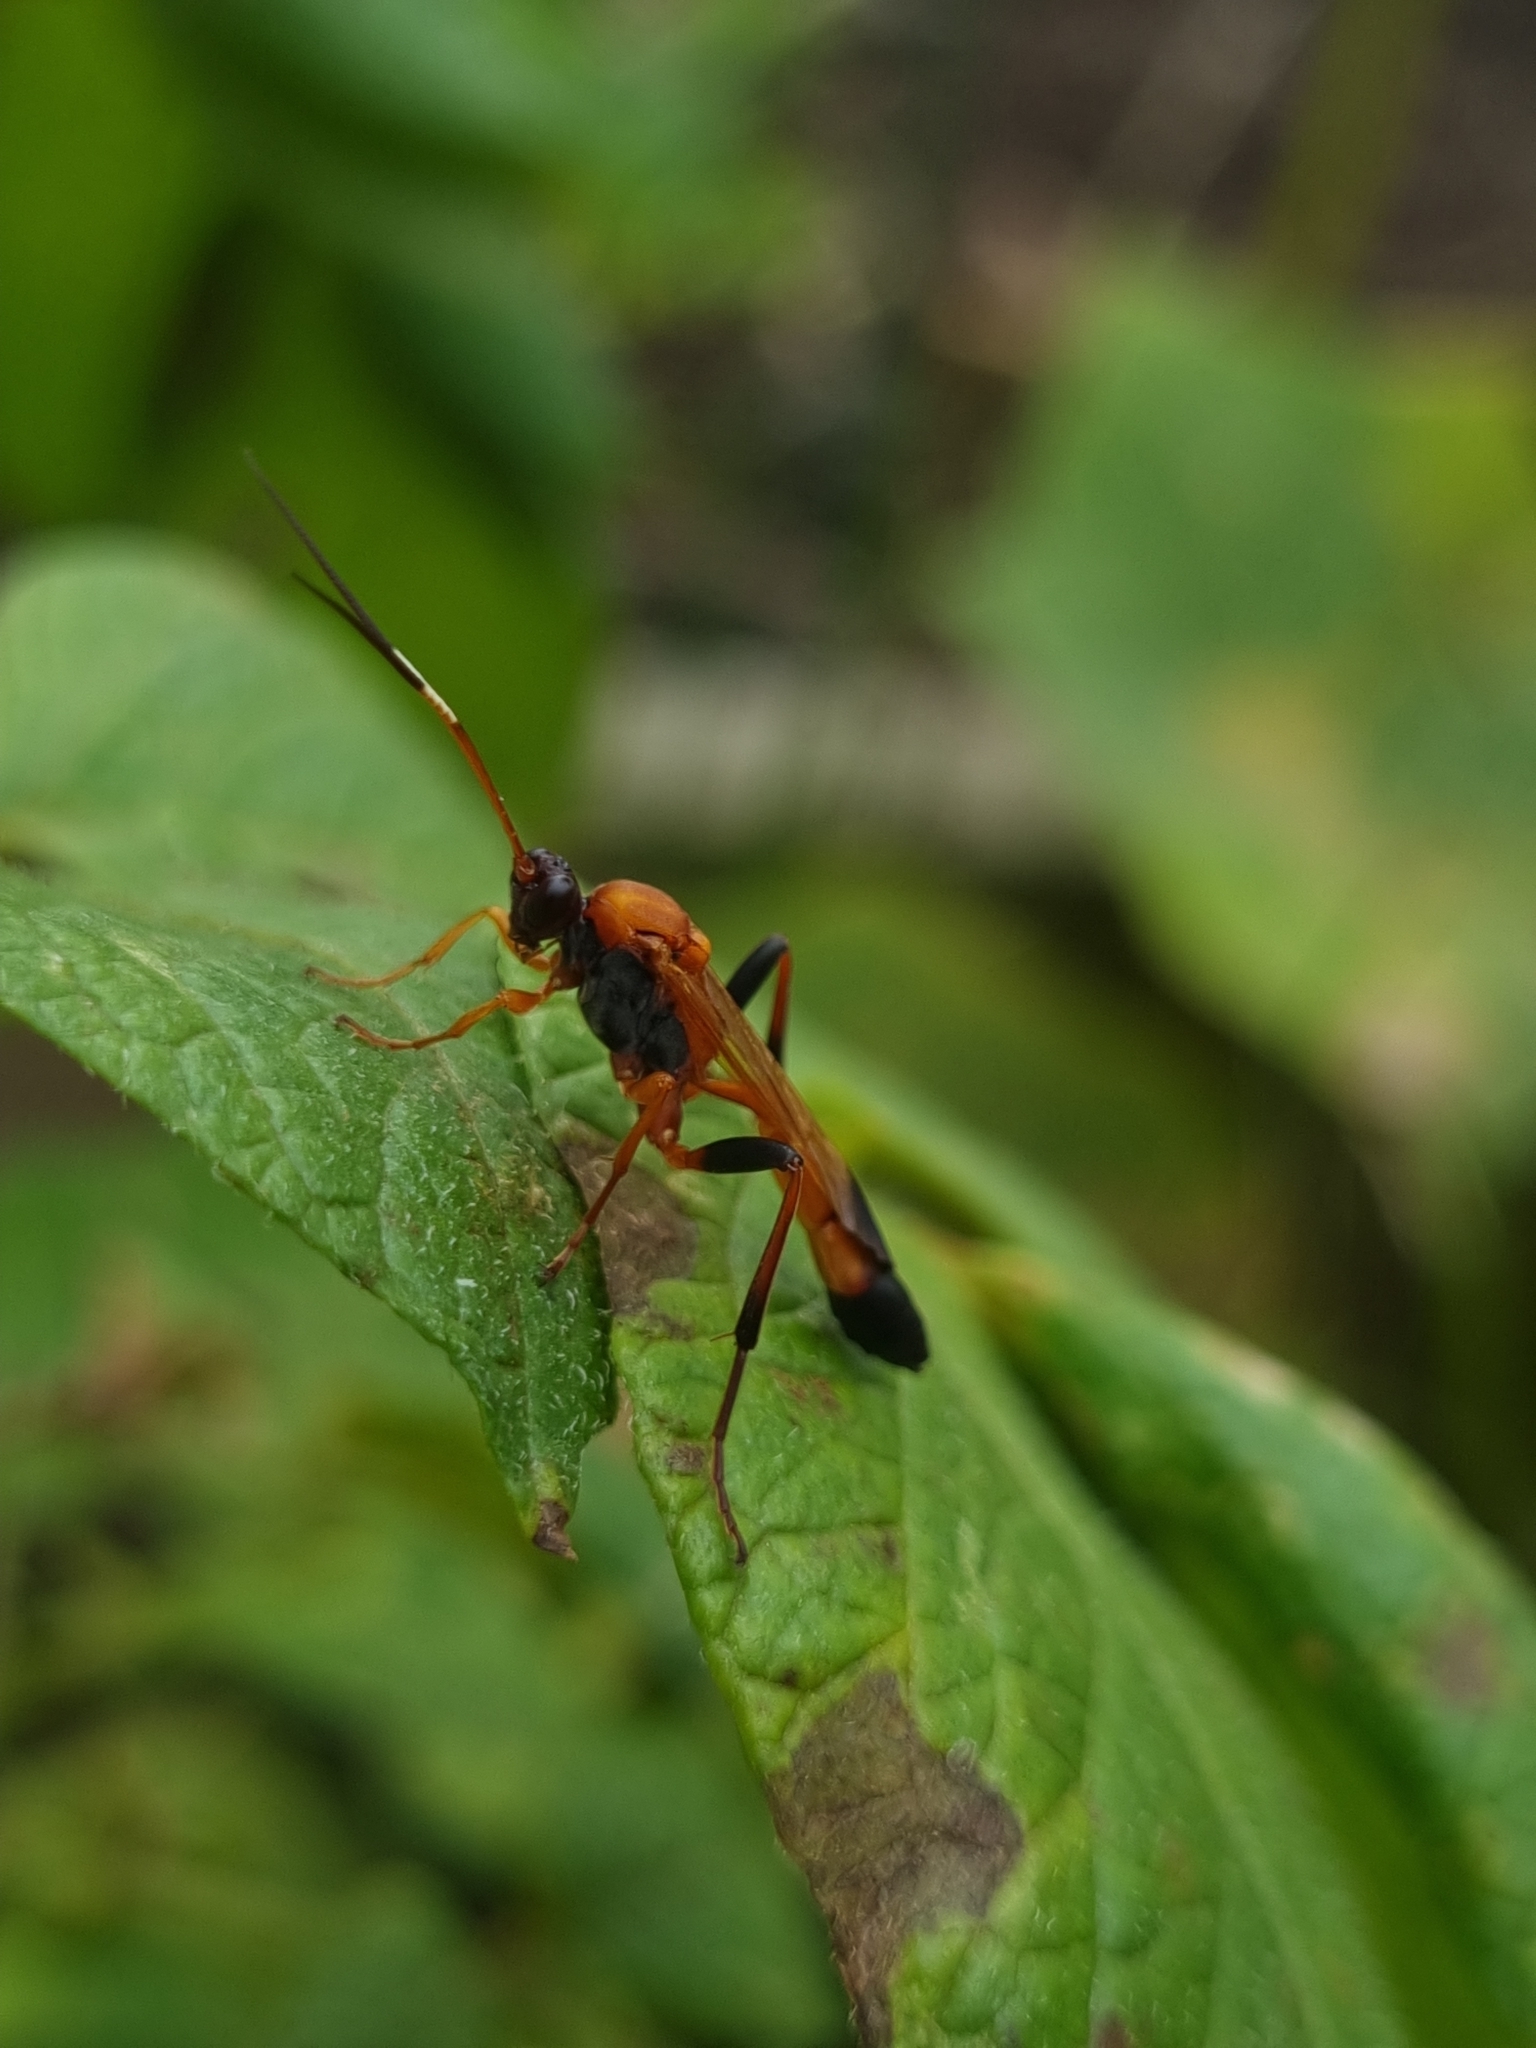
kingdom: Animalia
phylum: Arthropoda
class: Insecta
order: Hymenoptera
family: Ichneumonidae
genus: Ctenochares
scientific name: Ctenochares bicolorus
